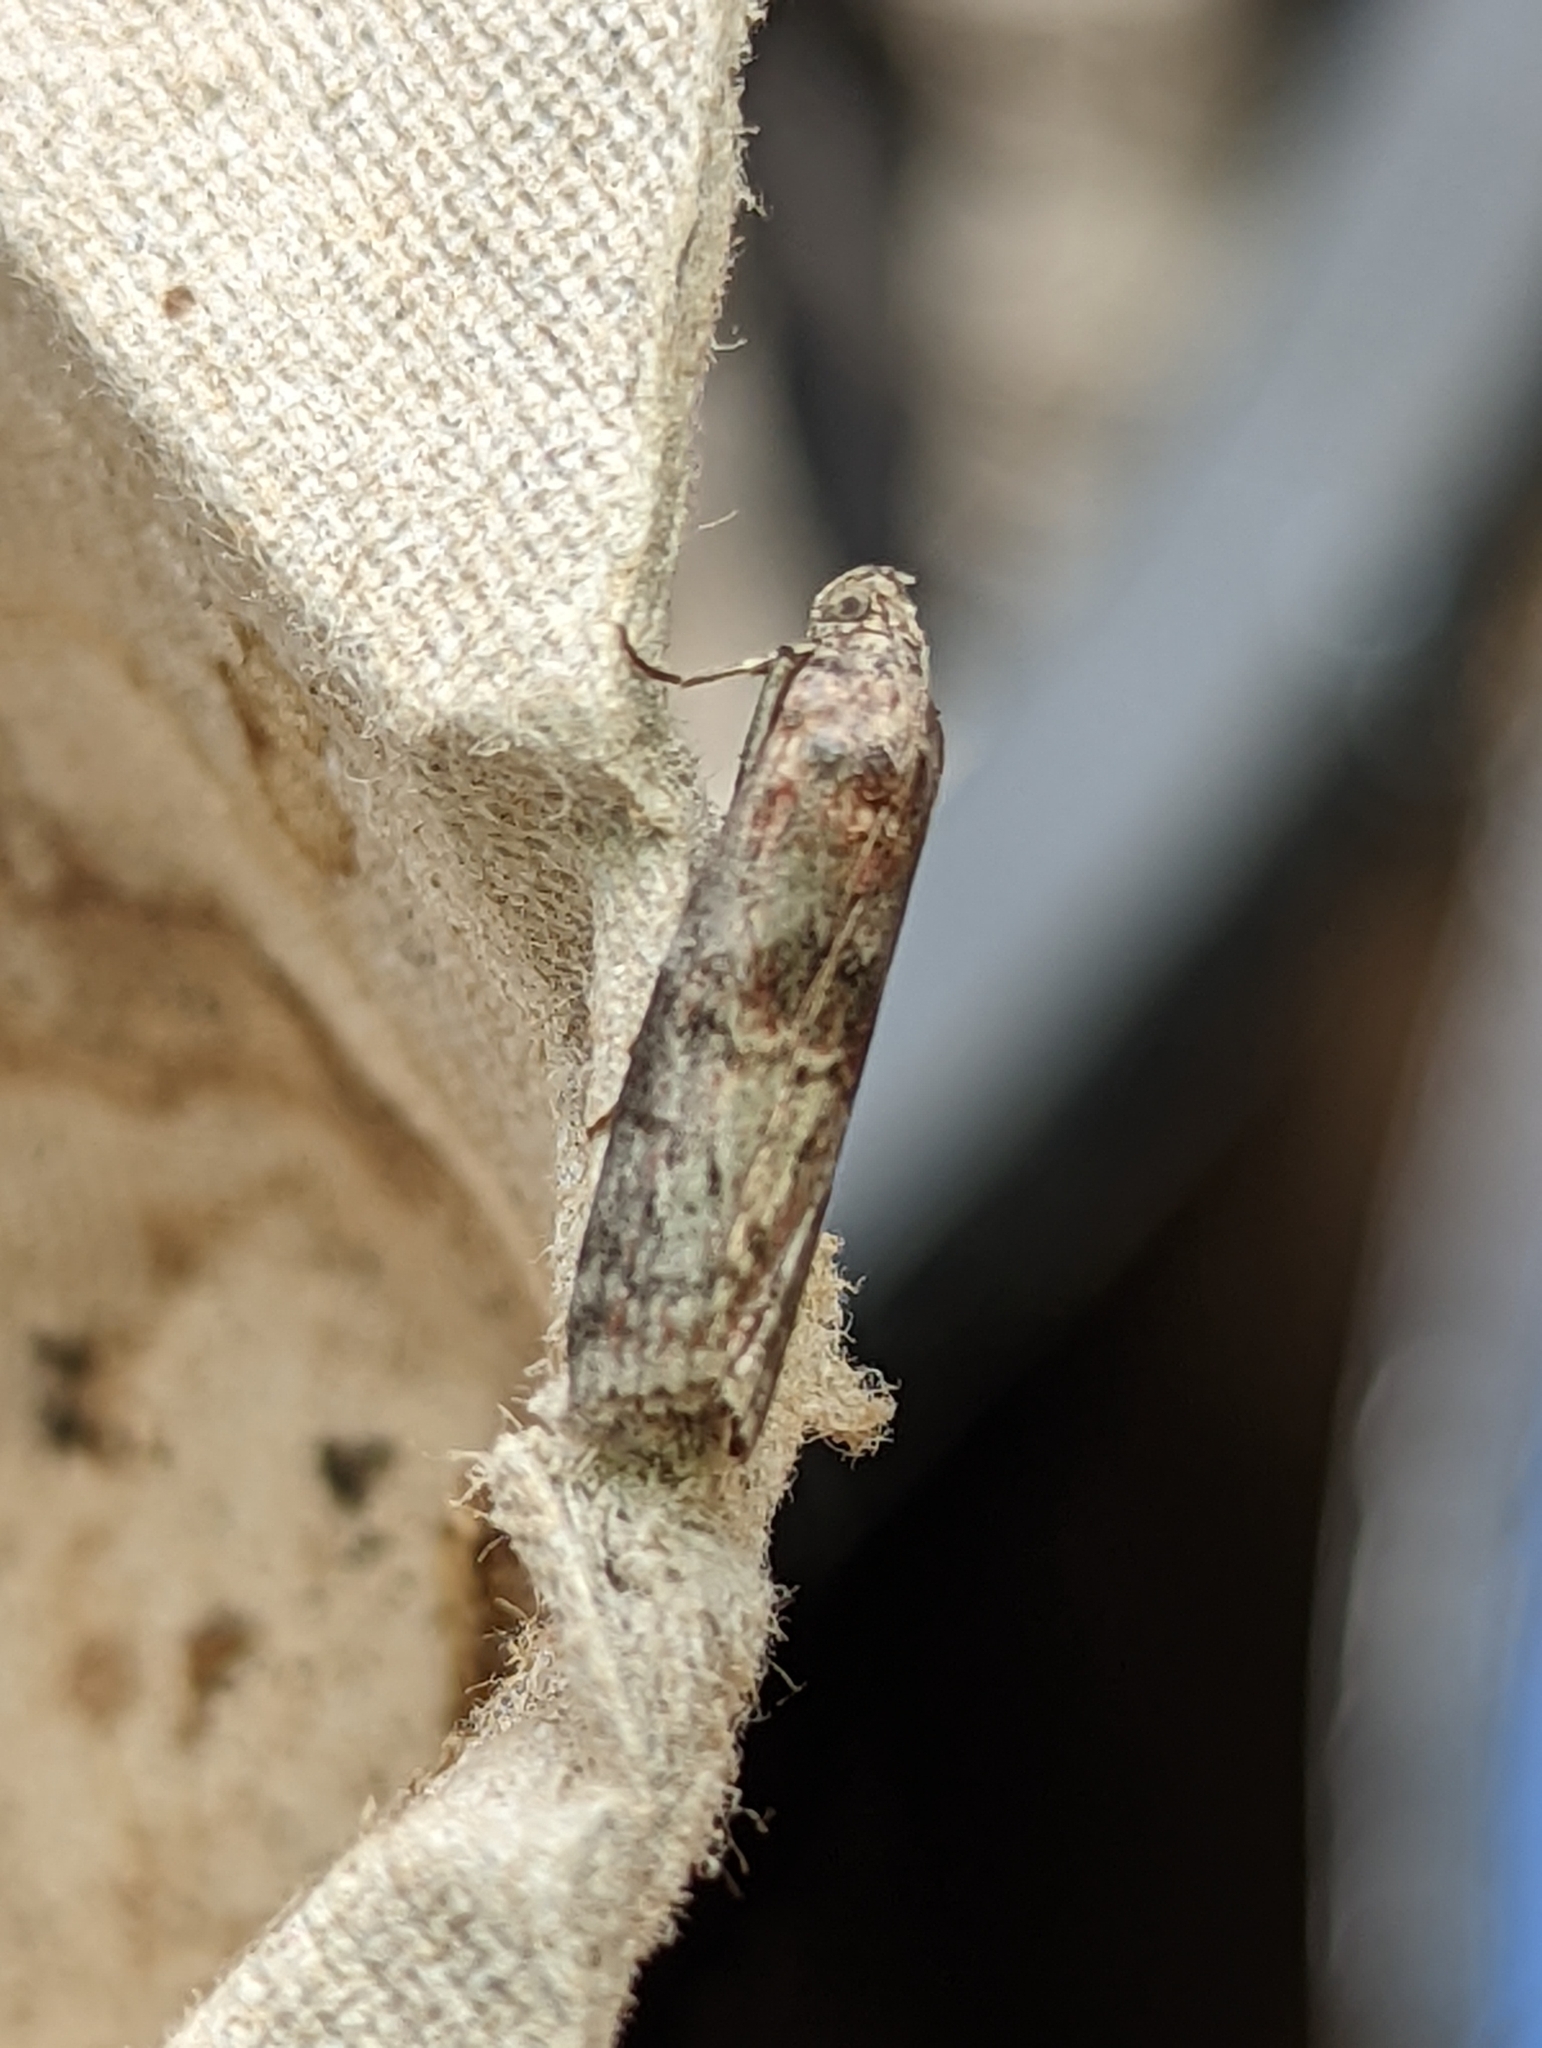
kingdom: Animalia
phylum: Arthropoda
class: Insecta
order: Lepidoptera
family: Pyralidae
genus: Phycita
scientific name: Phycita roborella
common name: Dotted oak knot-horn
